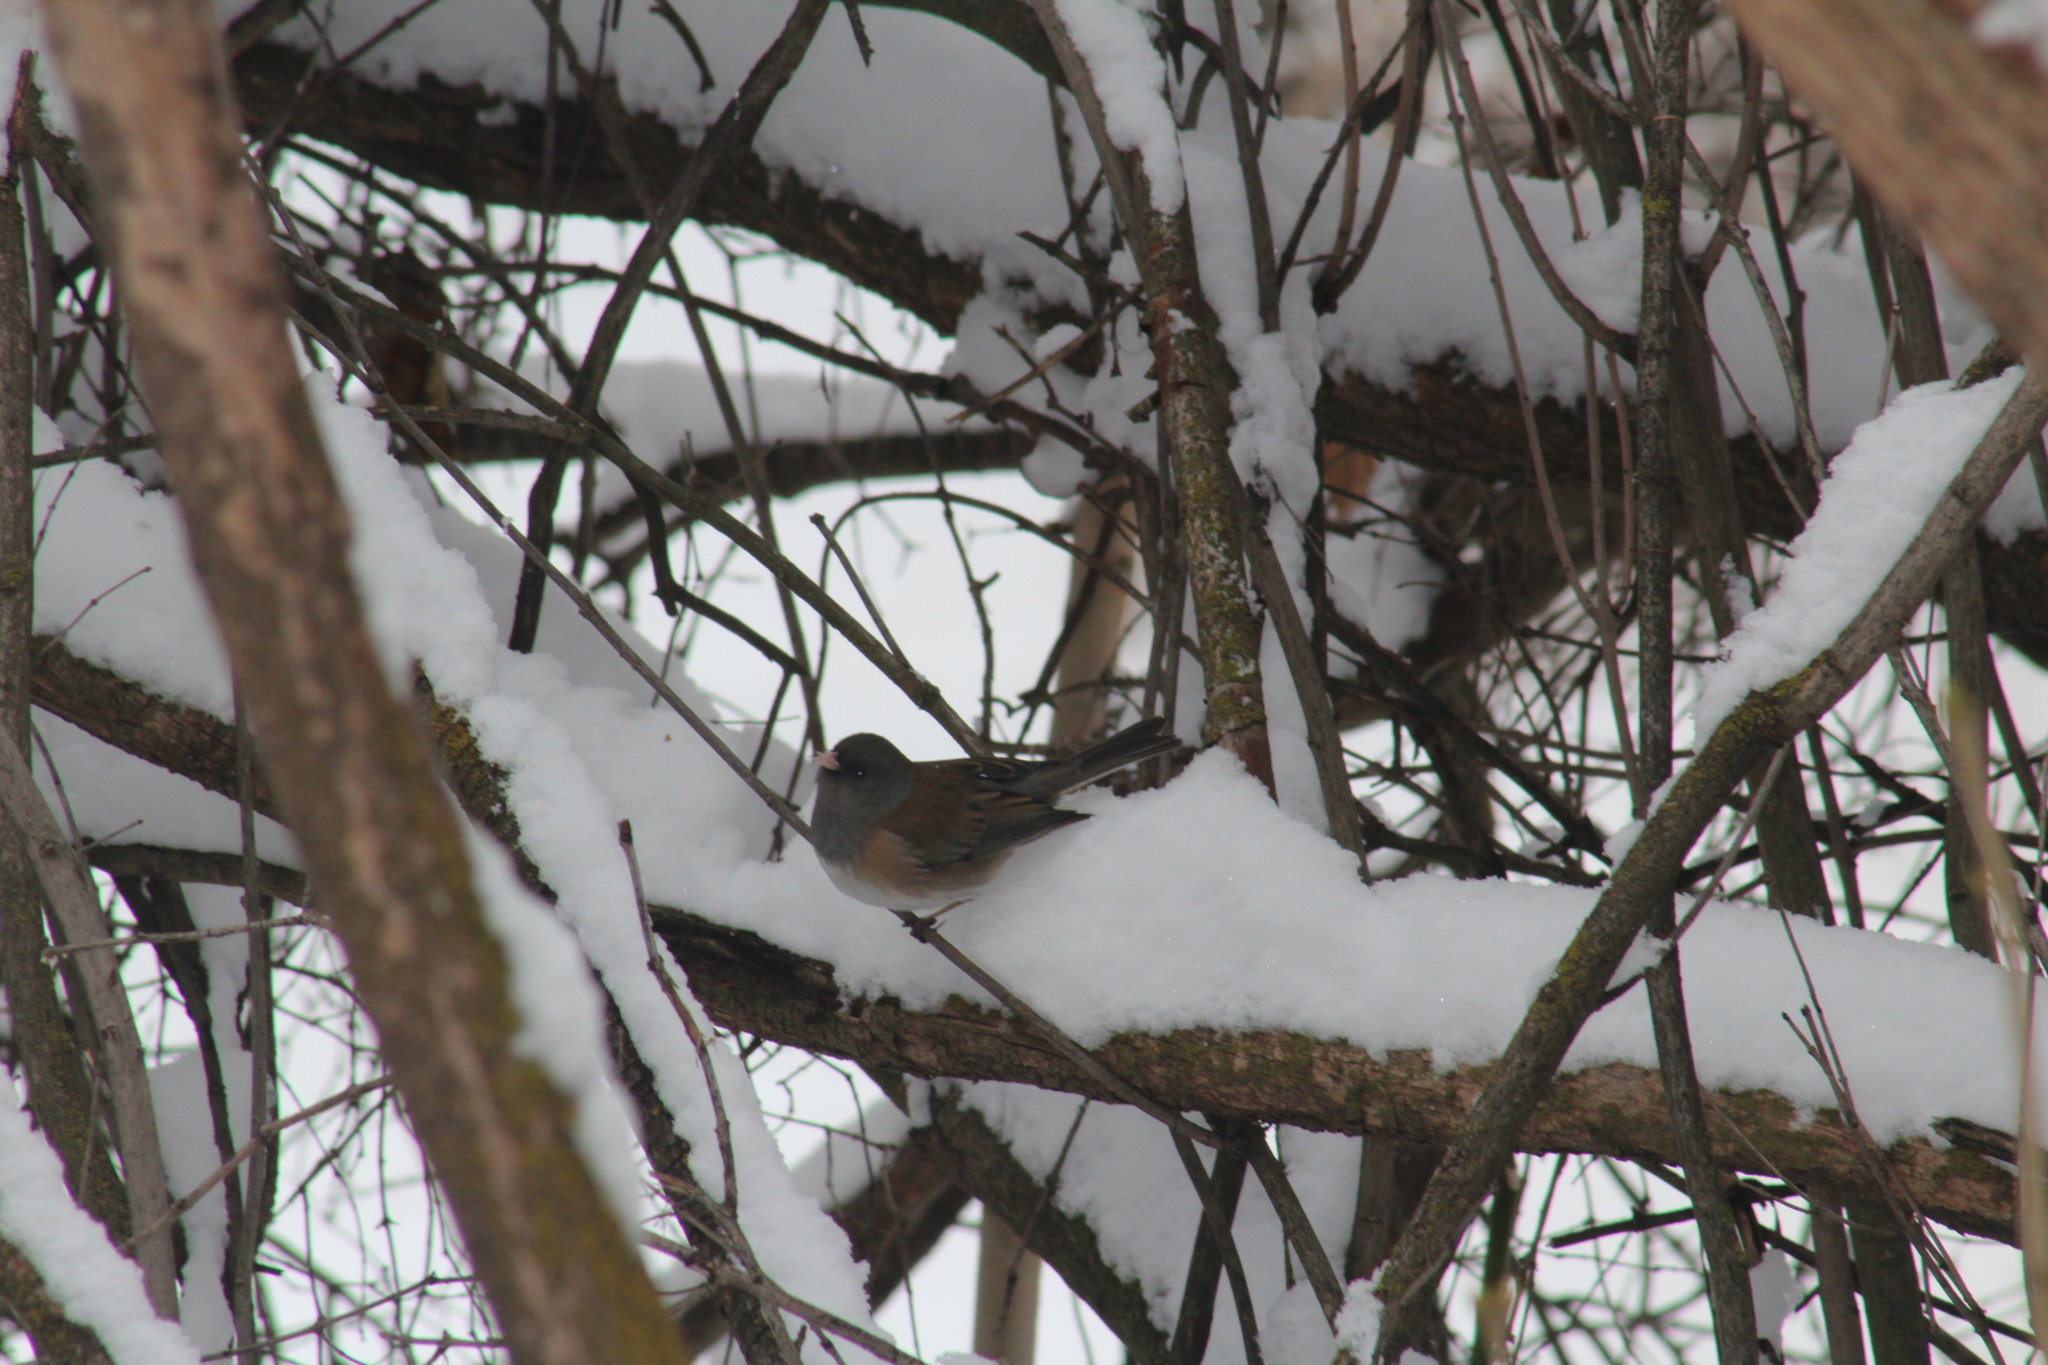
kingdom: Animalia
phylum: Chordata
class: Aves
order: Passeriformes
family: Passerellidae
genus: Junco
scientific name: Junco hyemalis
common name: Dark-eyed junco
